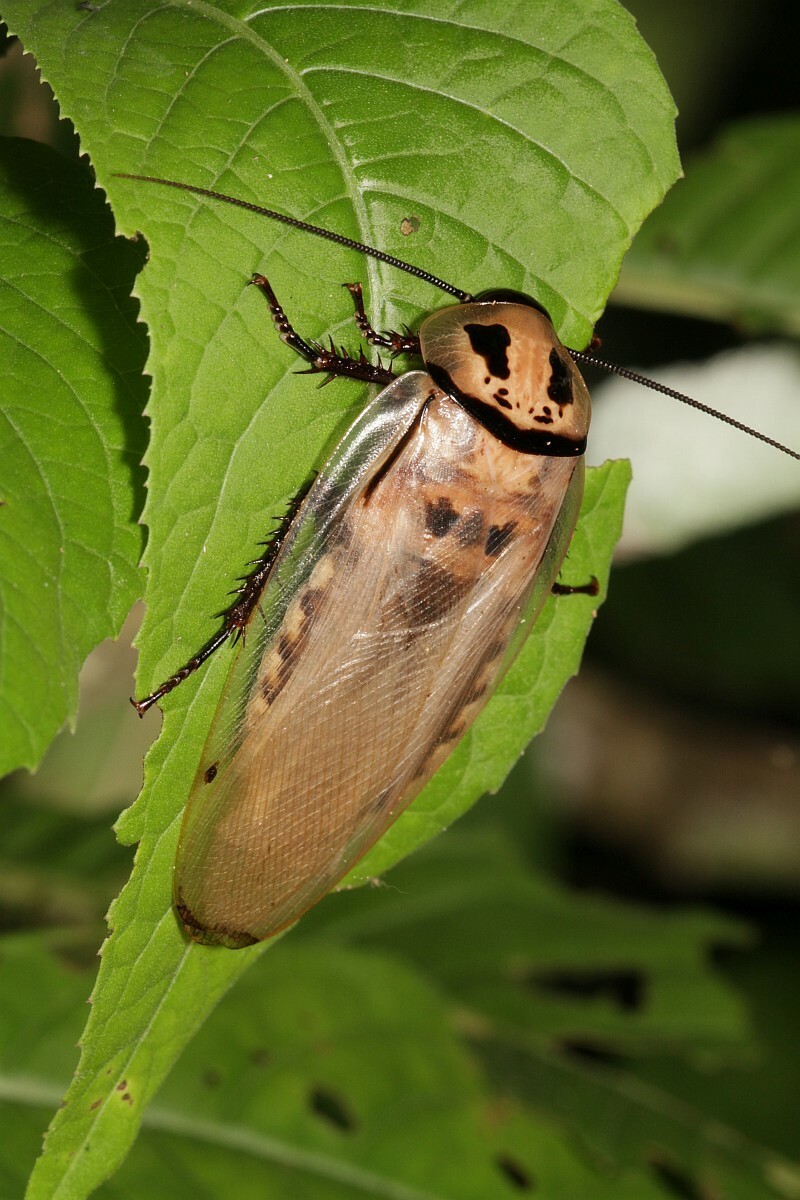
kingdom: Animalia
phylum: Arthropoda
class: Insecta
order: Blattodea
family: Blaberidae
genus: Eublaberus
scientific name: Eublaberus distanti
